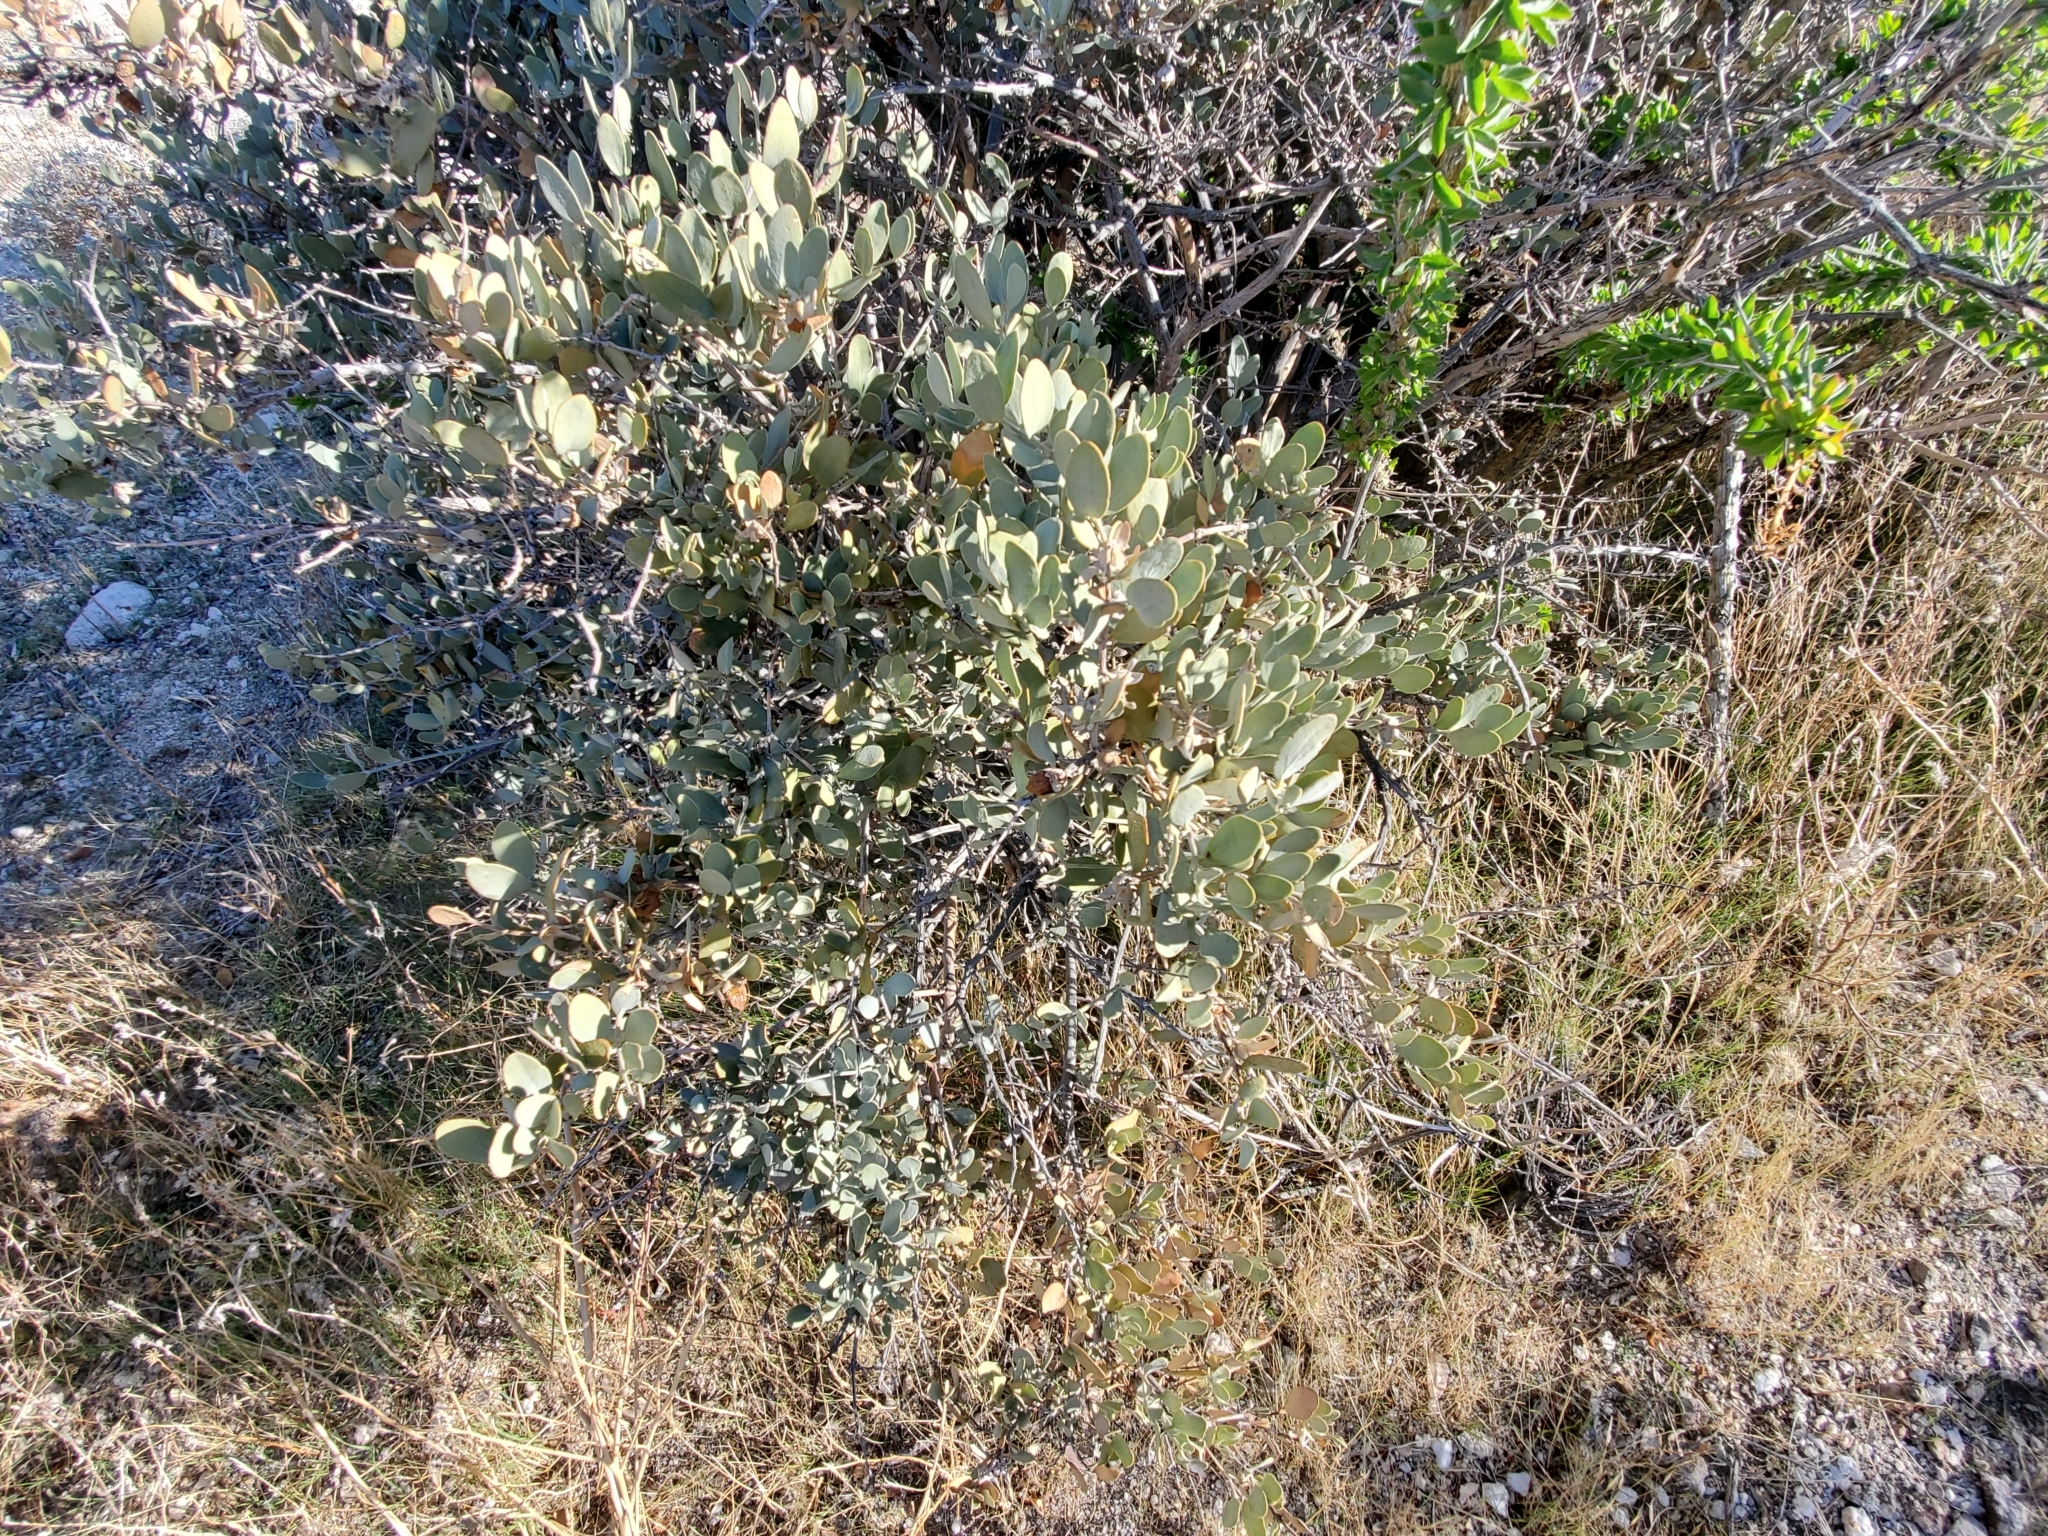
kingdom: Plantae
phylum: Tracheophyta
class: Magnoliopsida
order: Caryophyllales
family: Simmondsiaceae
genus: Simmondsia
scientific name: Simmondsia chinensis
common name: Jojoba
